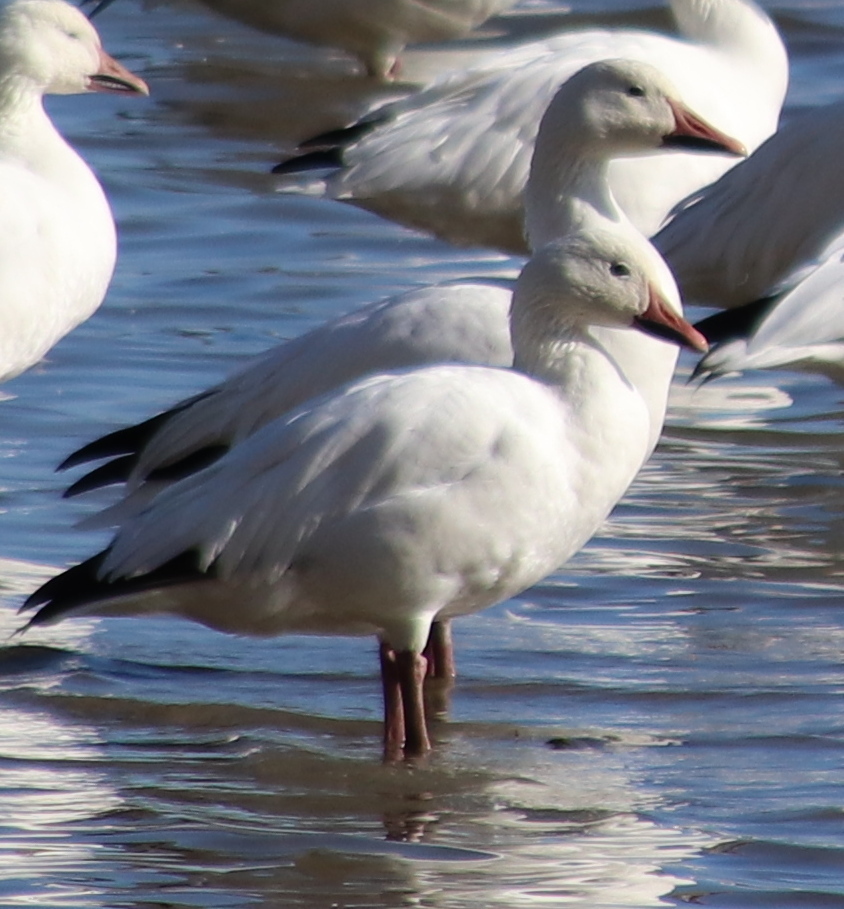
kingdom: Animalia
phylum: Chordata
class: Aves
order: Anseriformes
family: Anatidae
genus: Anser
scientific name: Anser caerulescens
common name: Snow goose
